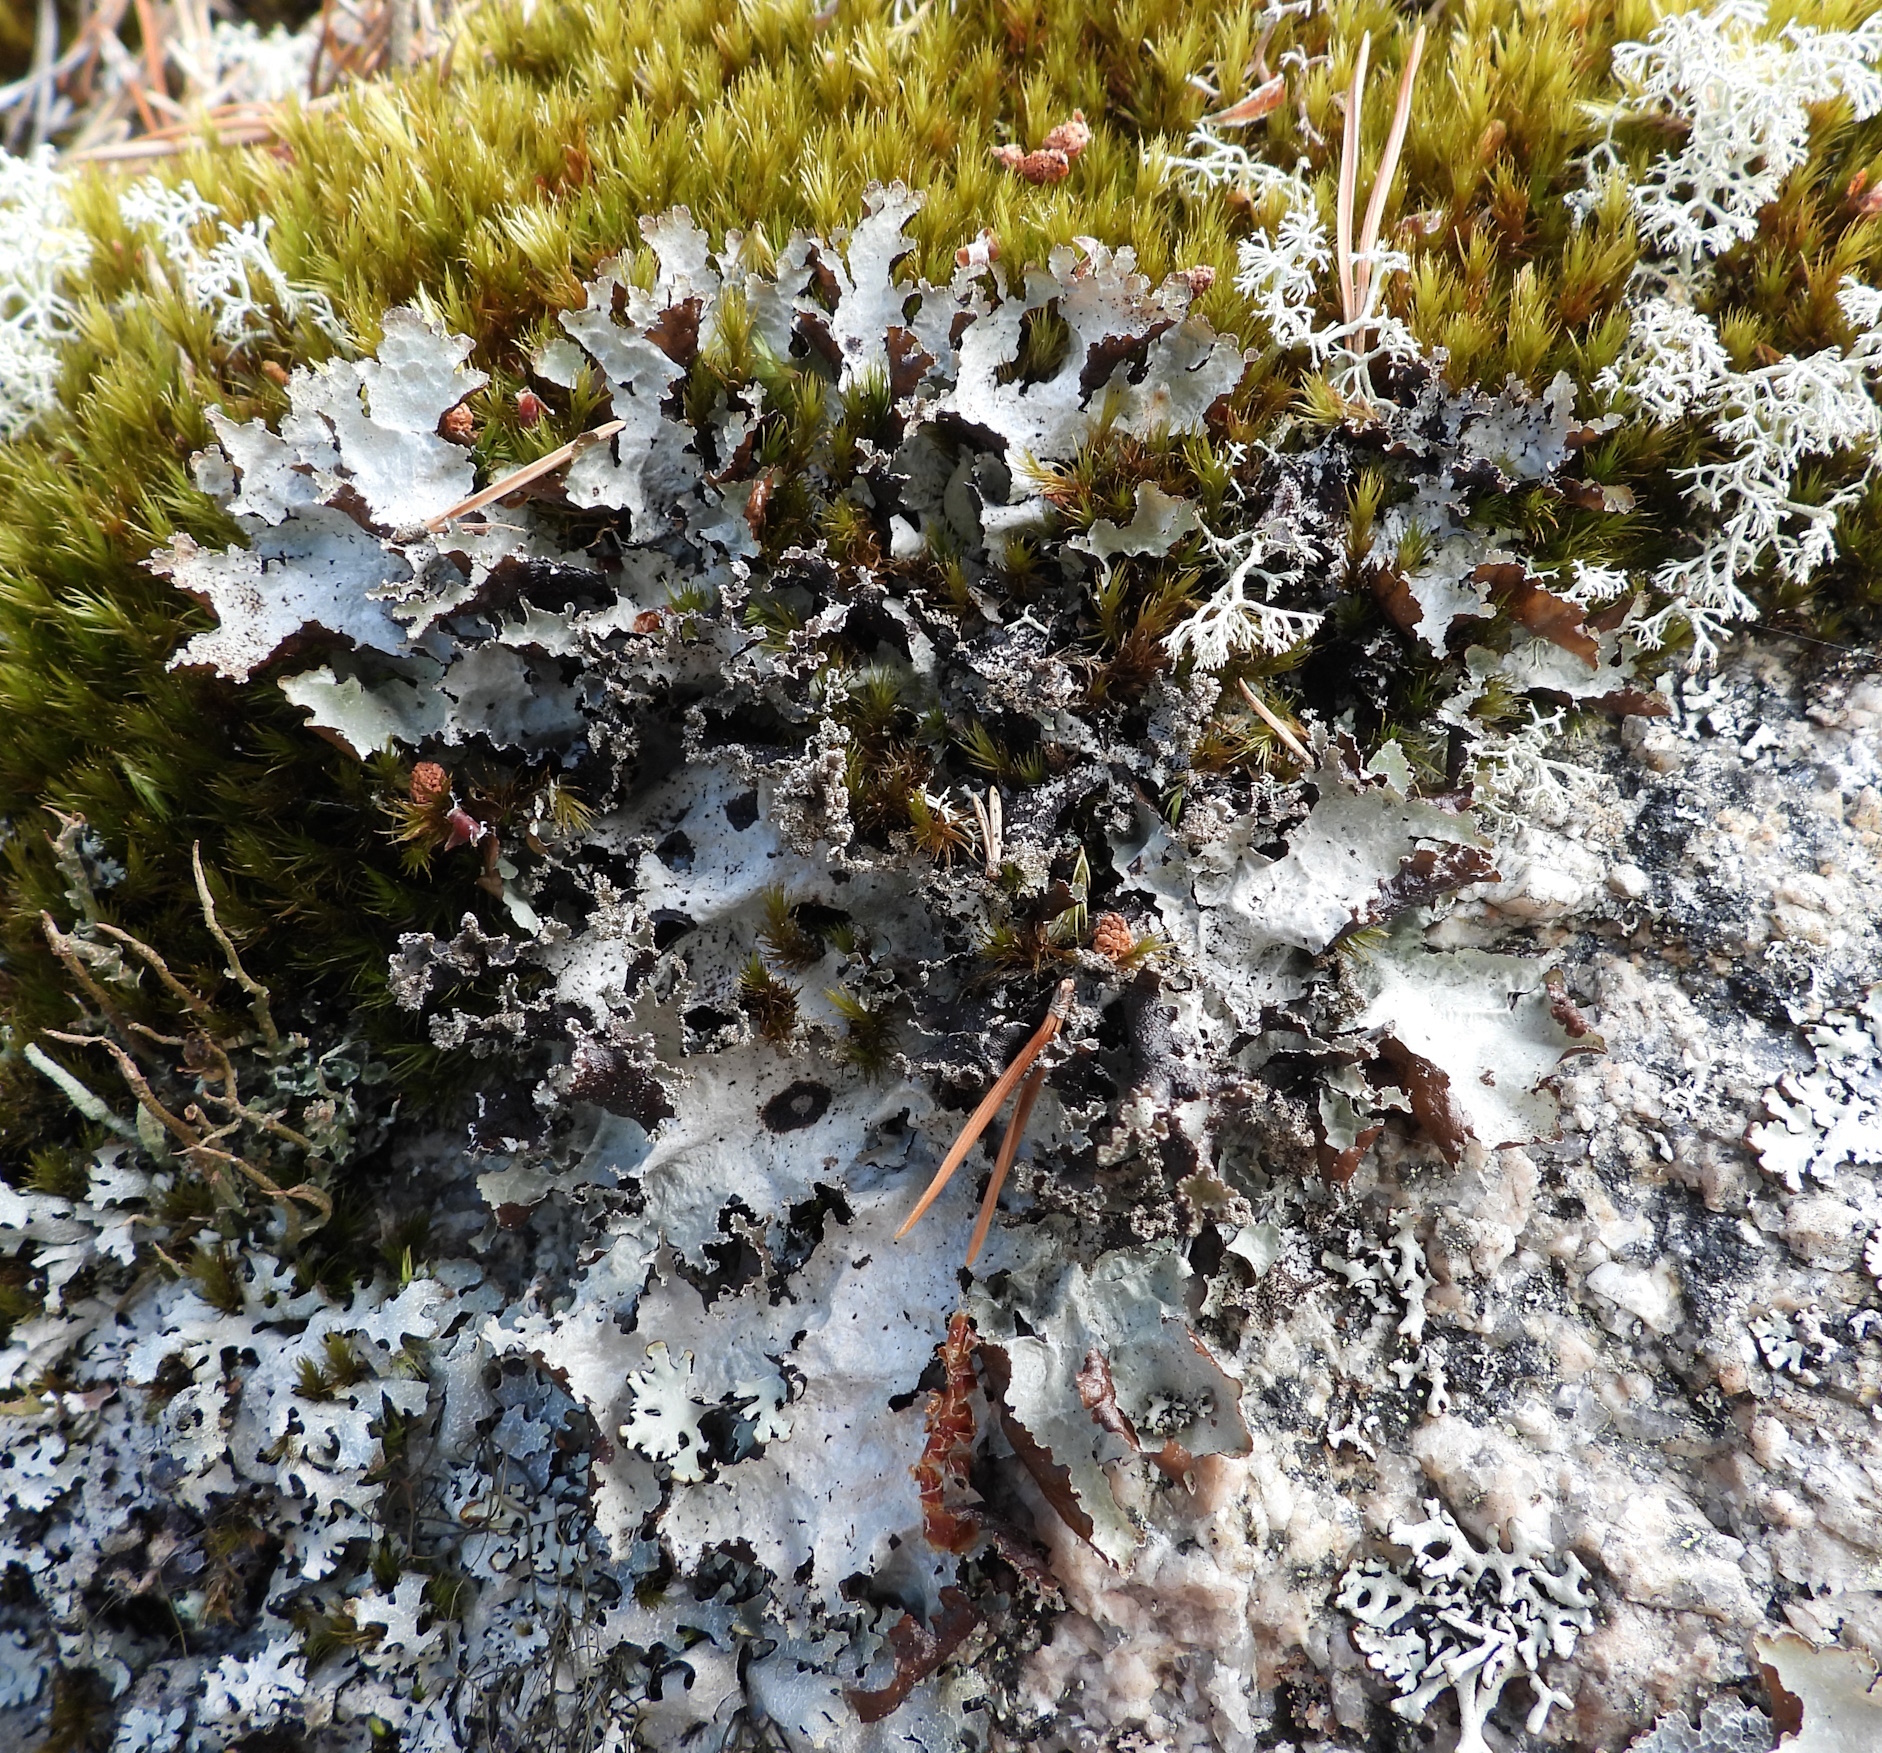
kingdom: Fungi
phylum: Ascomycota
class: Lecanoromycetes
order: Lecanorales
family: Parmeliaceae
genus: Platismatia
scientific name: Platismatia glauca
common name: Varied rag lichen
